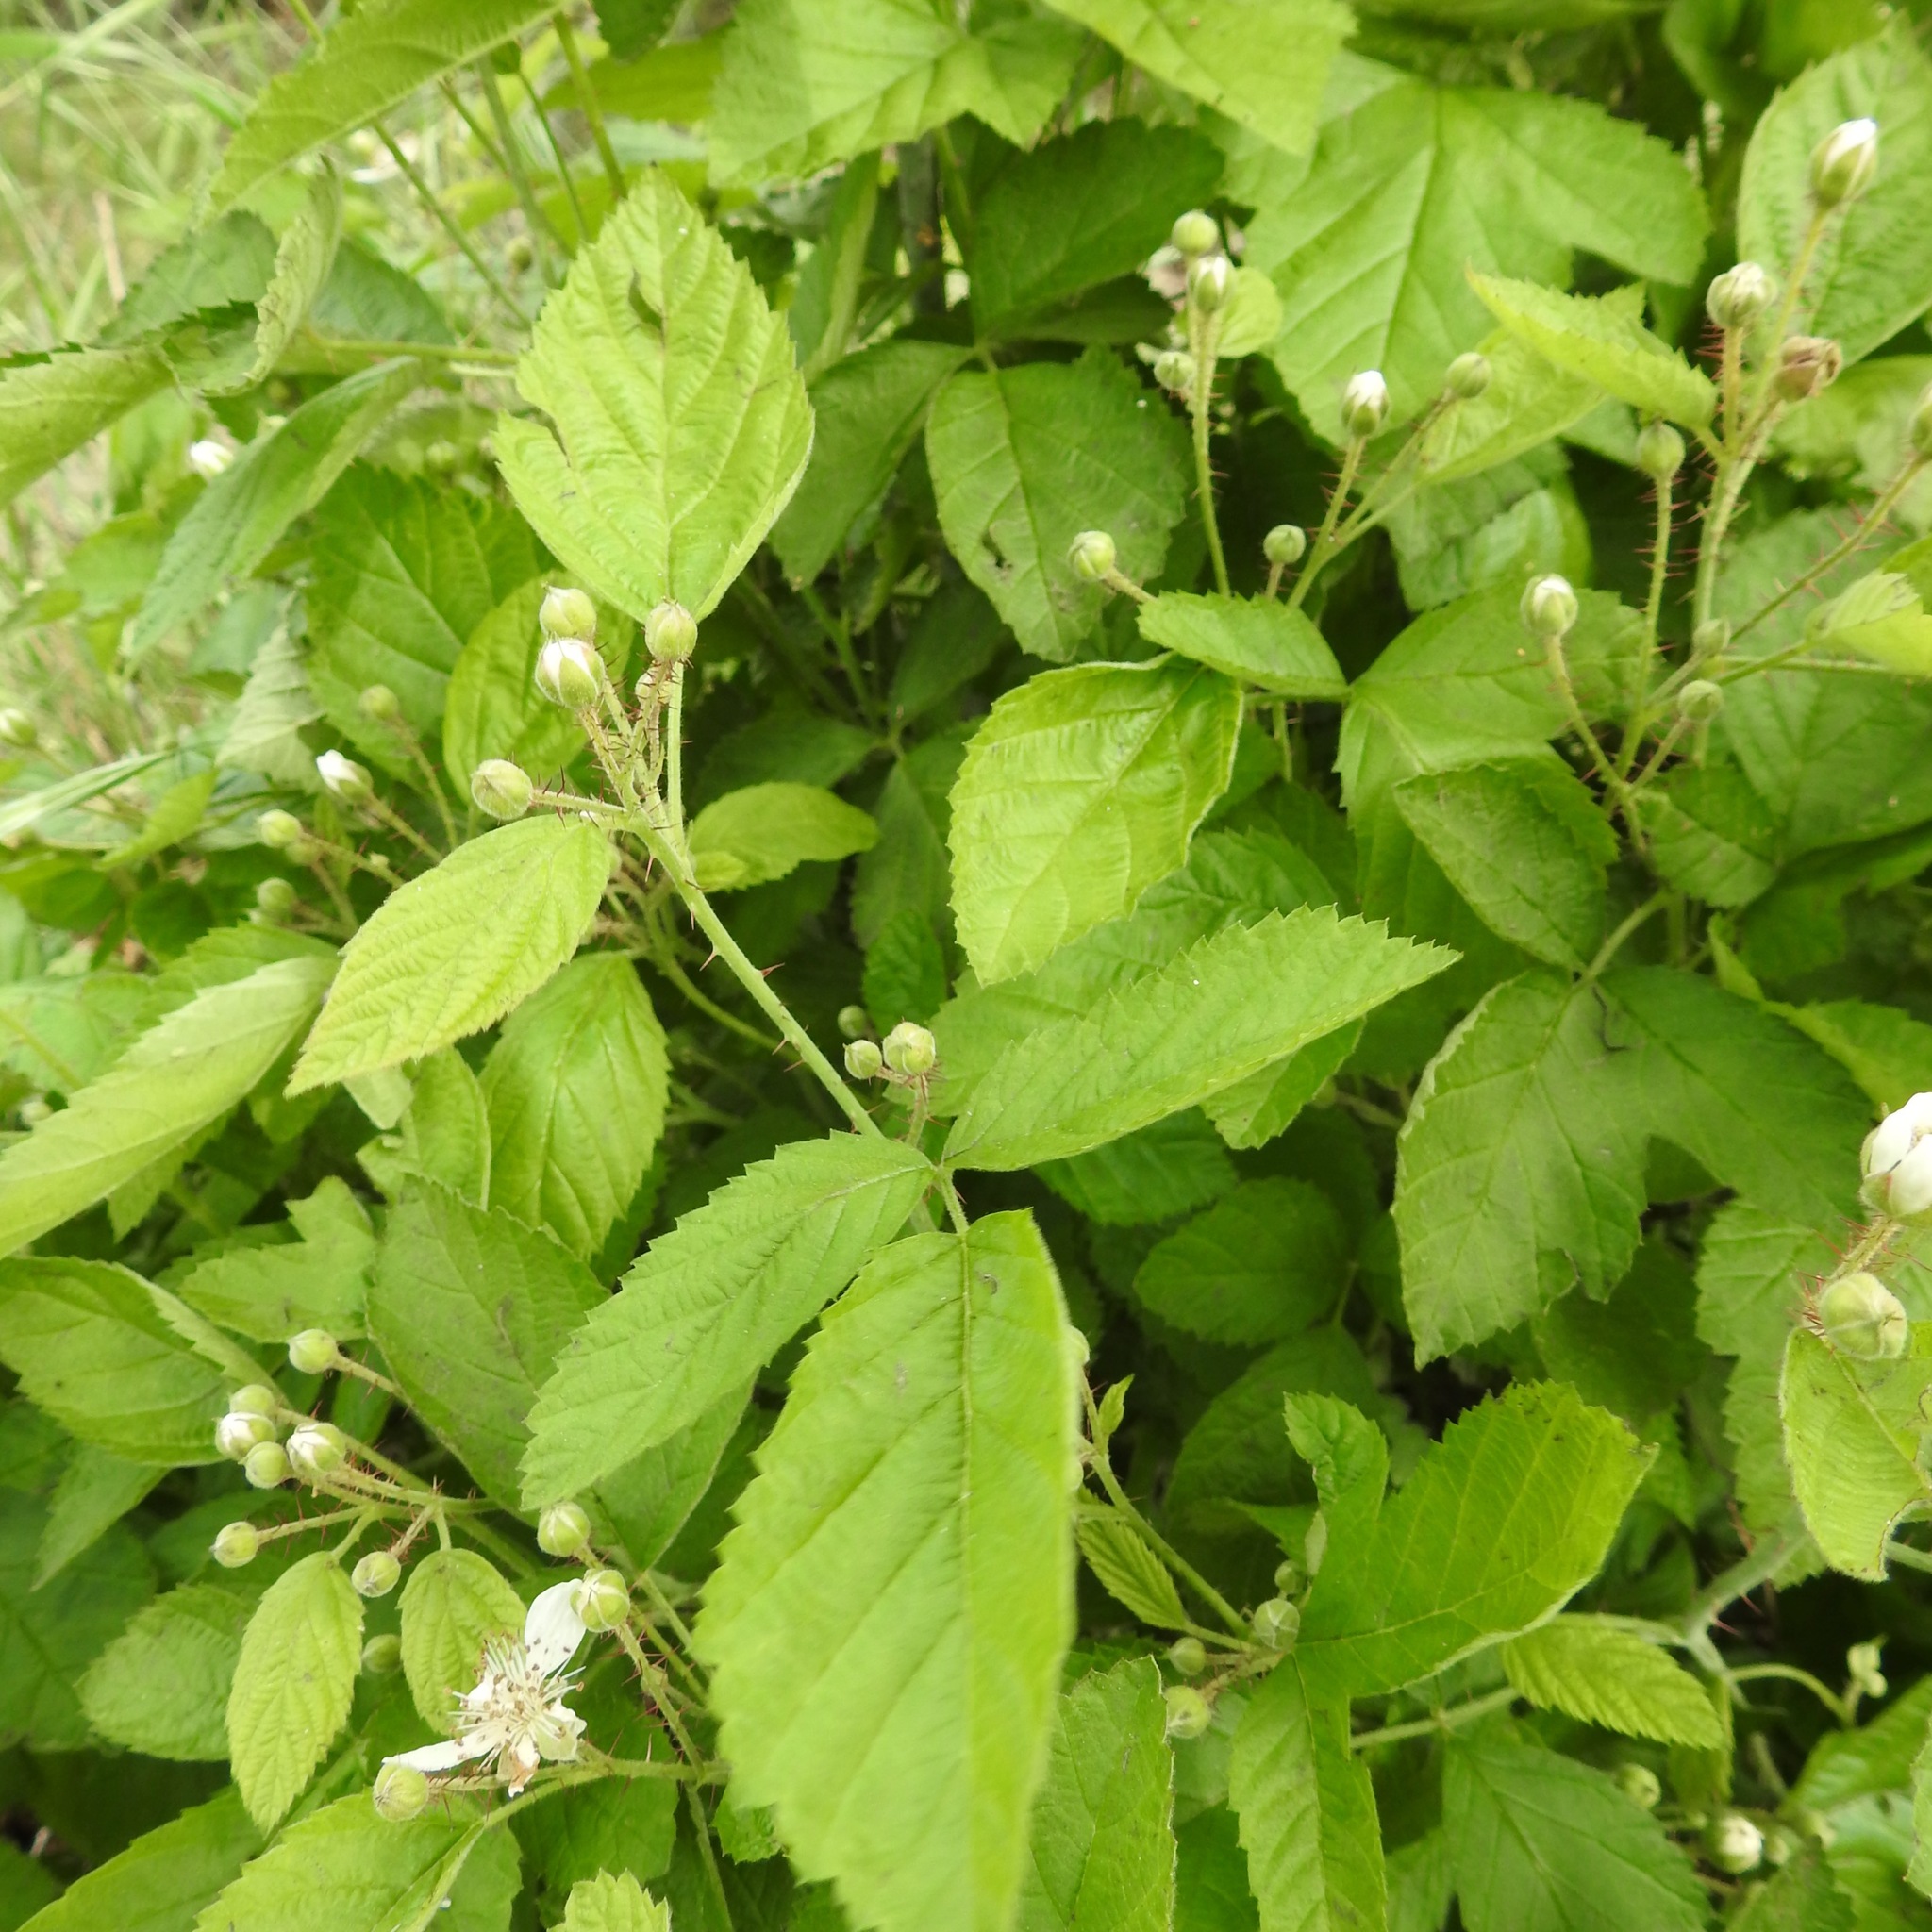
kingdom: Plantae
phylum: Tracheophyta
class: Magnoliopsida
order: Rosales
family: Rosaceae
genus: Rubus
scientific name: Rubus ursinus
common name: Pacific blackberry
